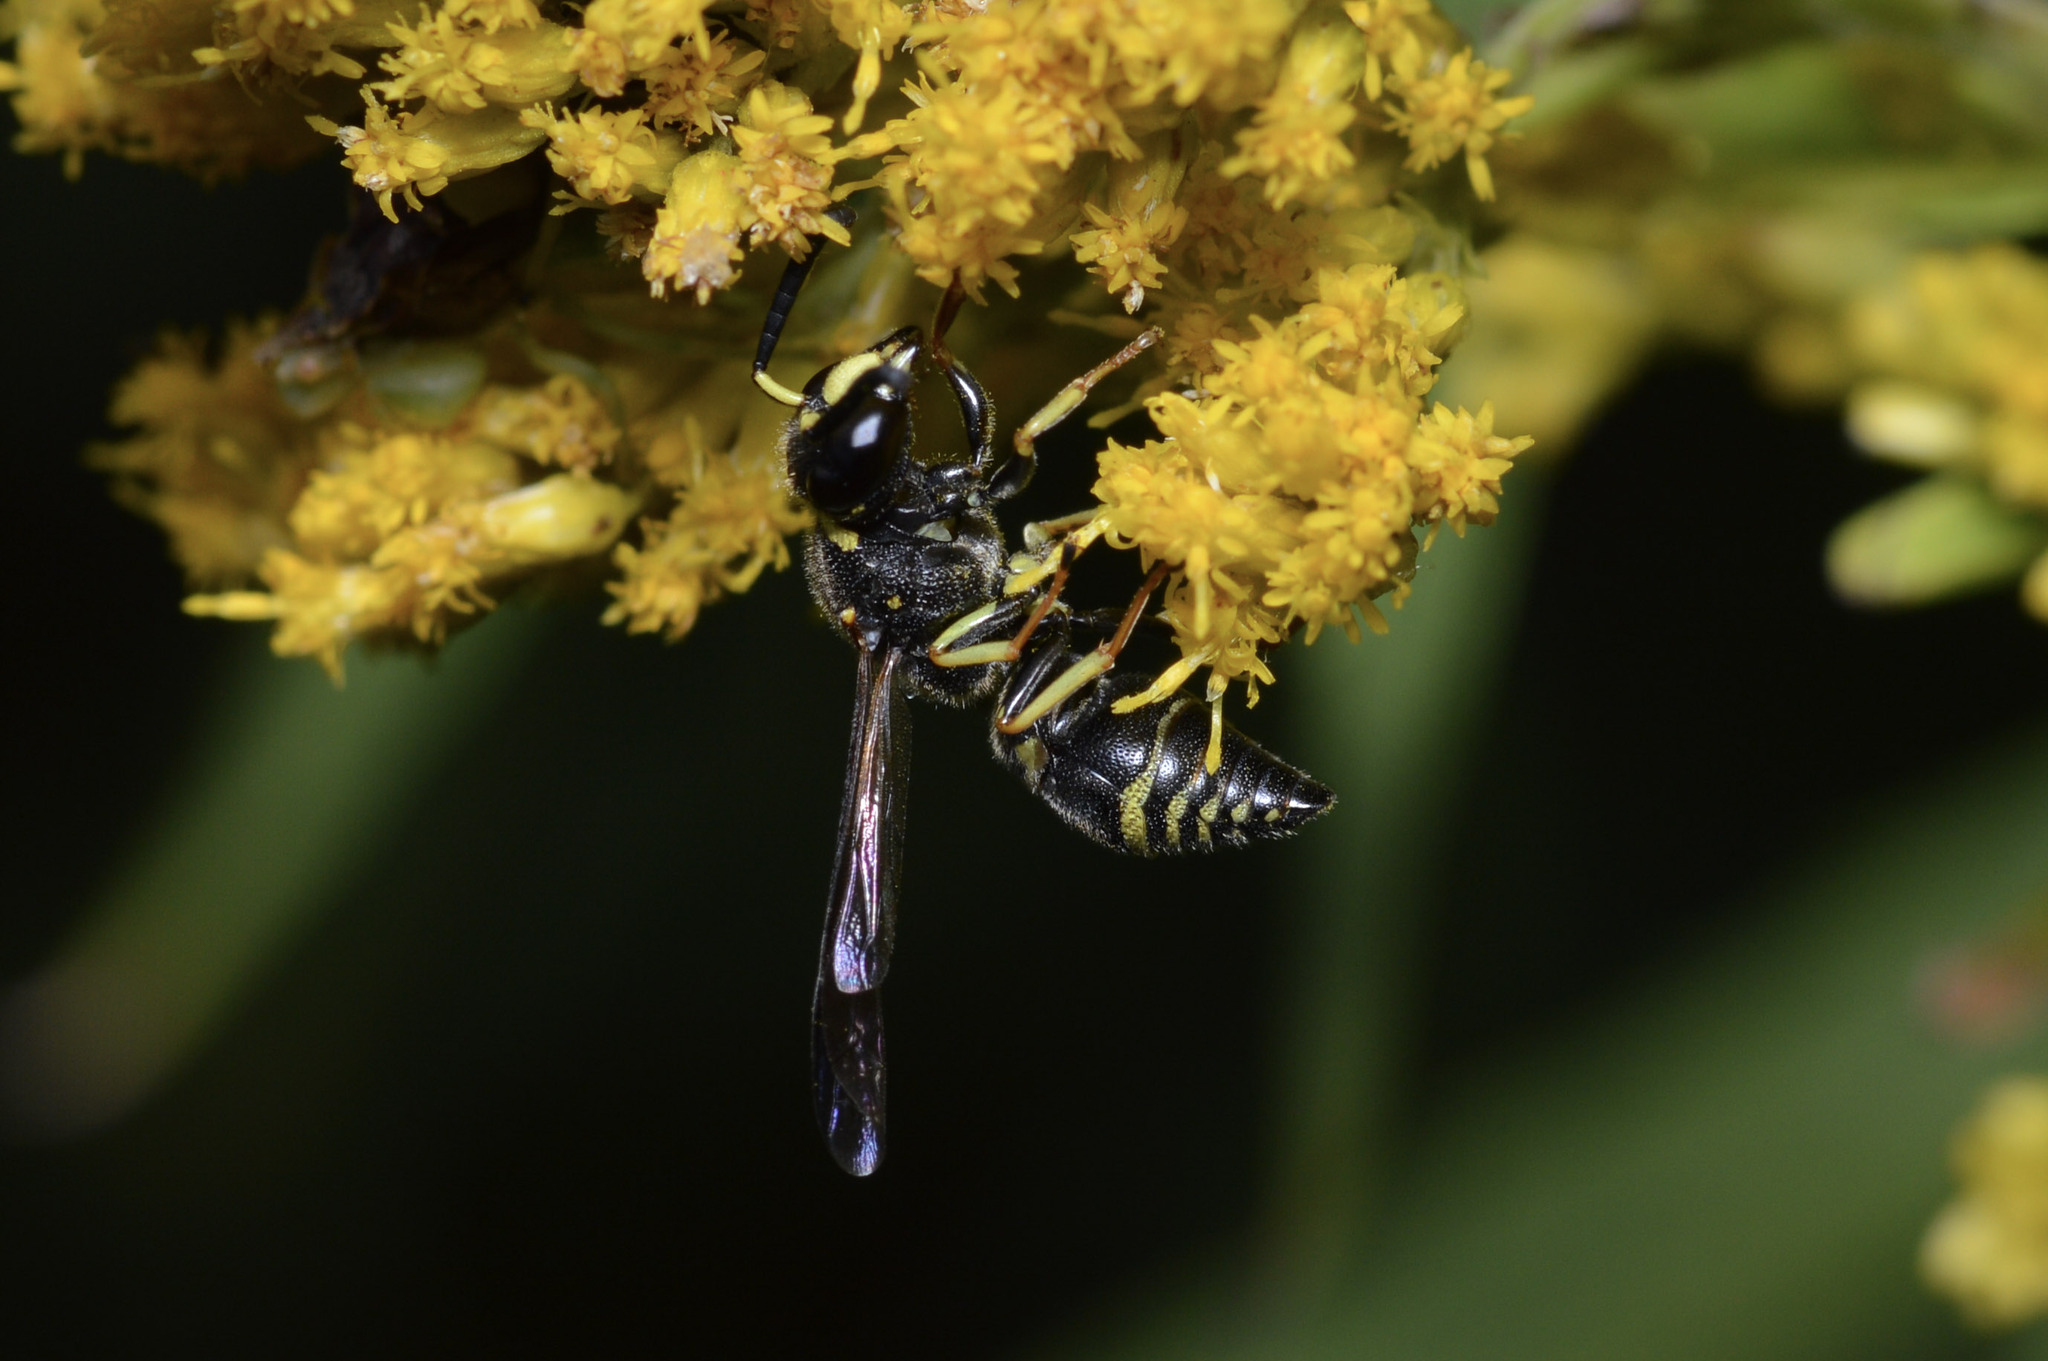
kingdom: Animalia
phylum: Arthropoda
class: Insecta
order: Hymenoptera
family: Eumenidae
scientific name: Eumenidae
